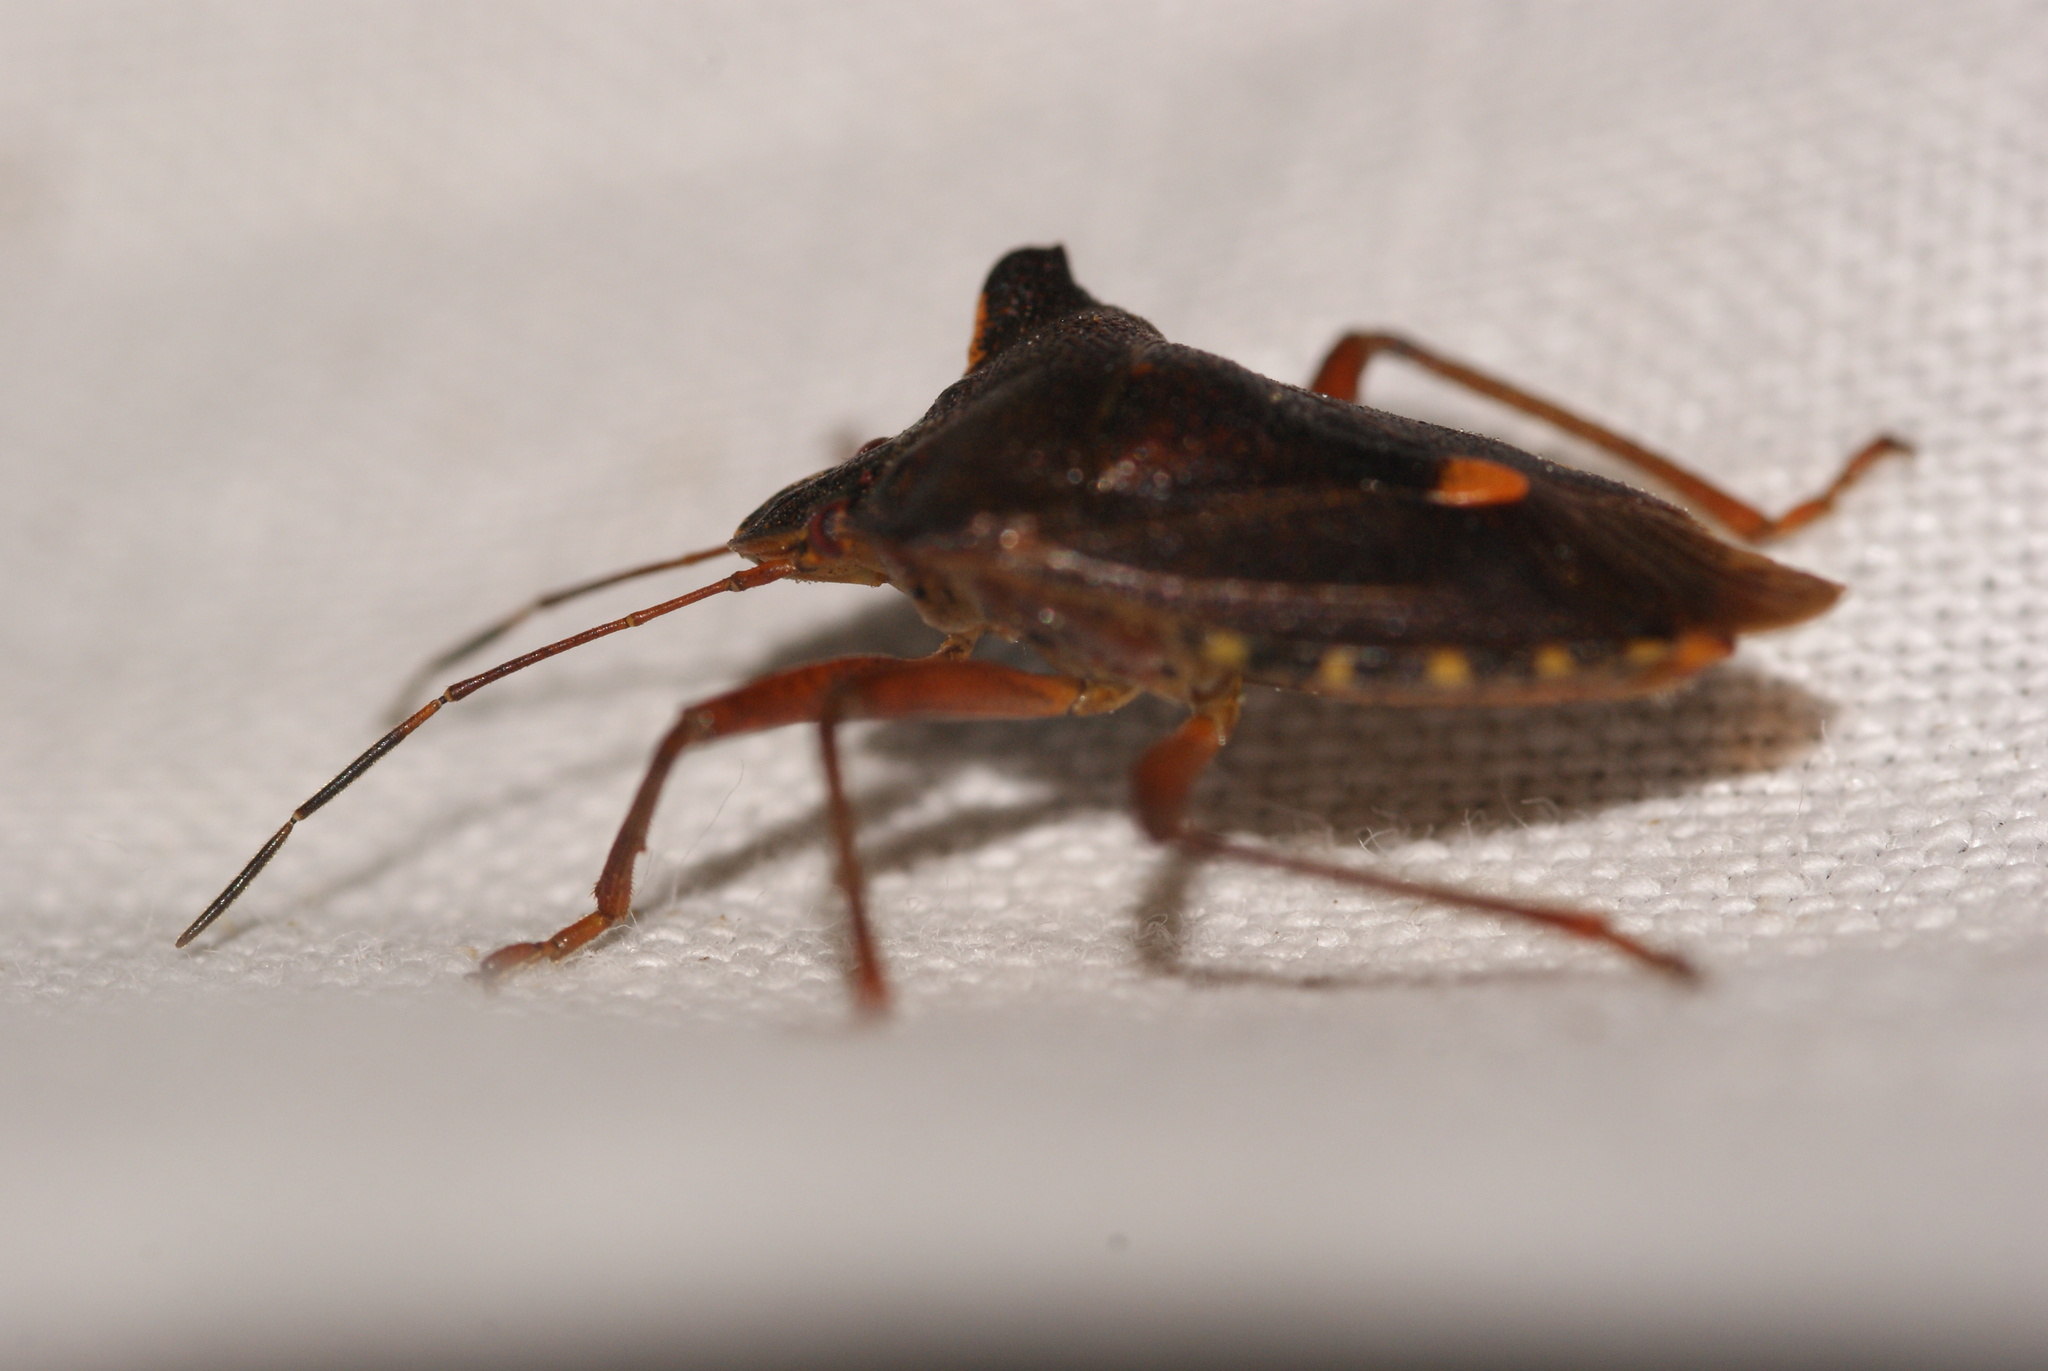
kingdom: Animalia
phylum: Arthropoda
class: Insecta
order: Hemiptera
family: Pentatomidae
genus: Pentatoma
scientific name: Pentatoma rufipes
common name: Forest bug
